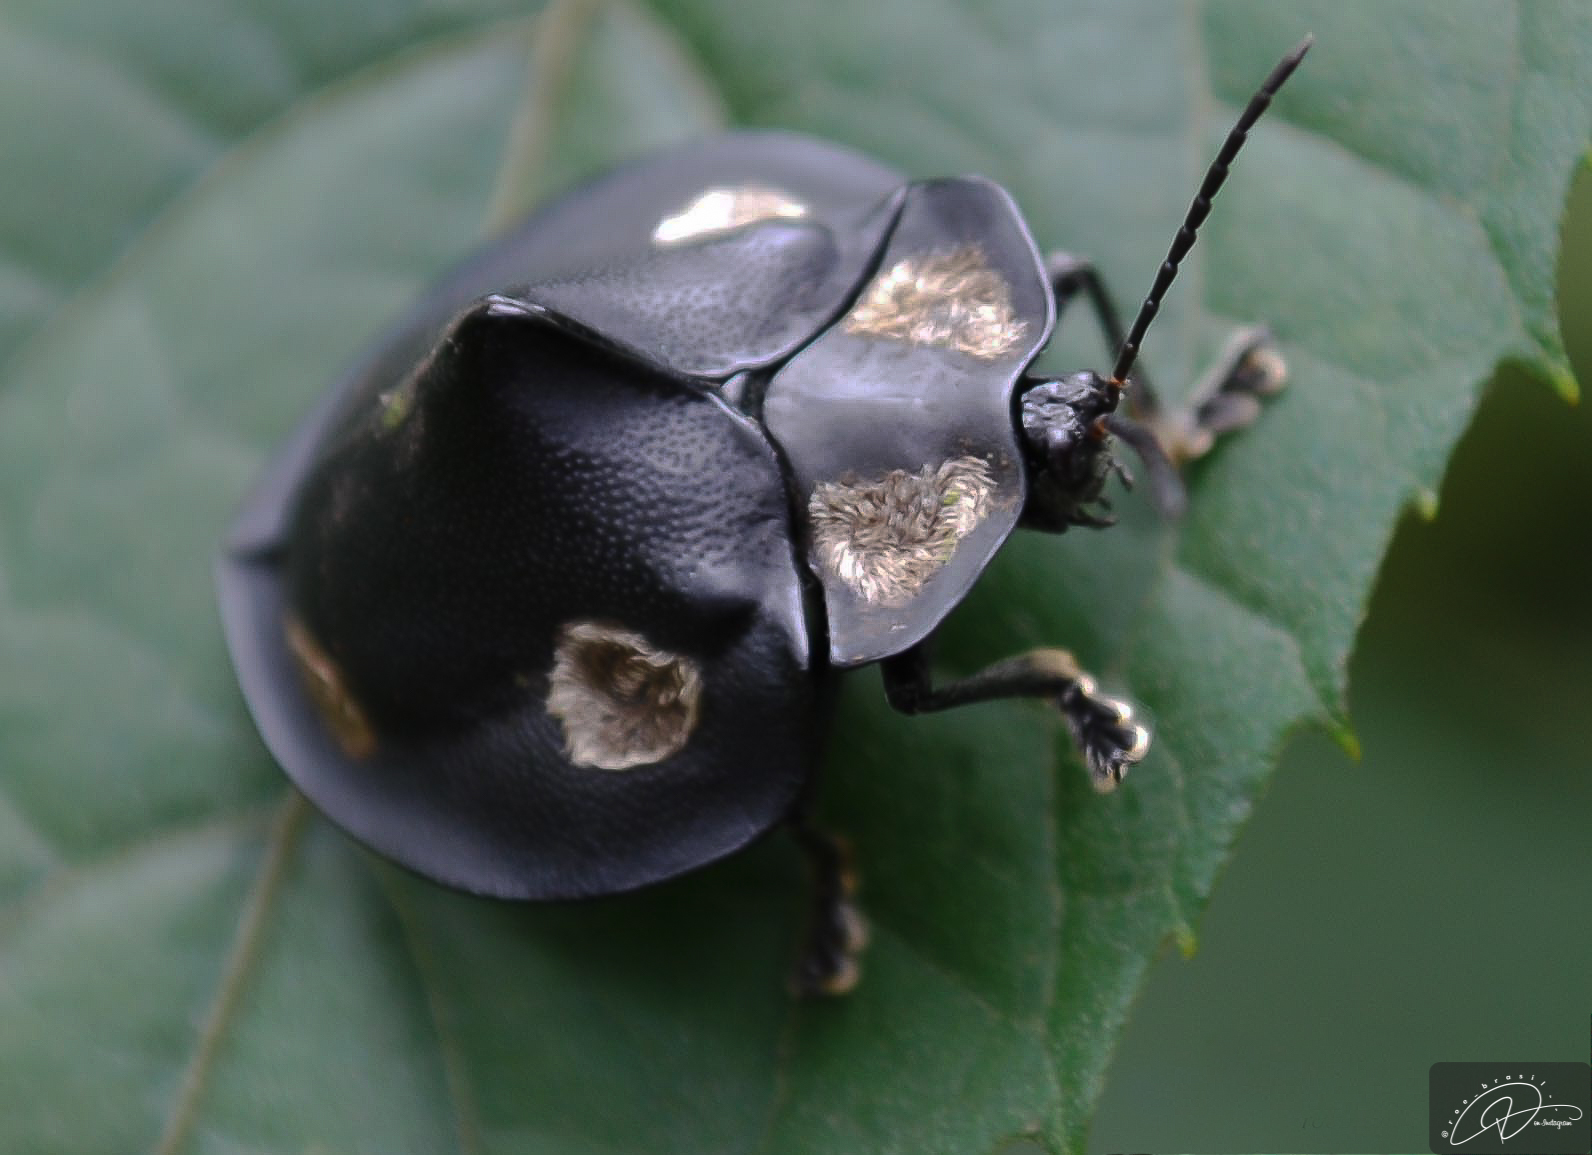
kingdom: Animalia
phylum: Arthropoda
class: Insecta
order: Coleoptera
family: Chrysomelidae
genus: Mesomphalia
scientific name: Mesomphalia turrita
